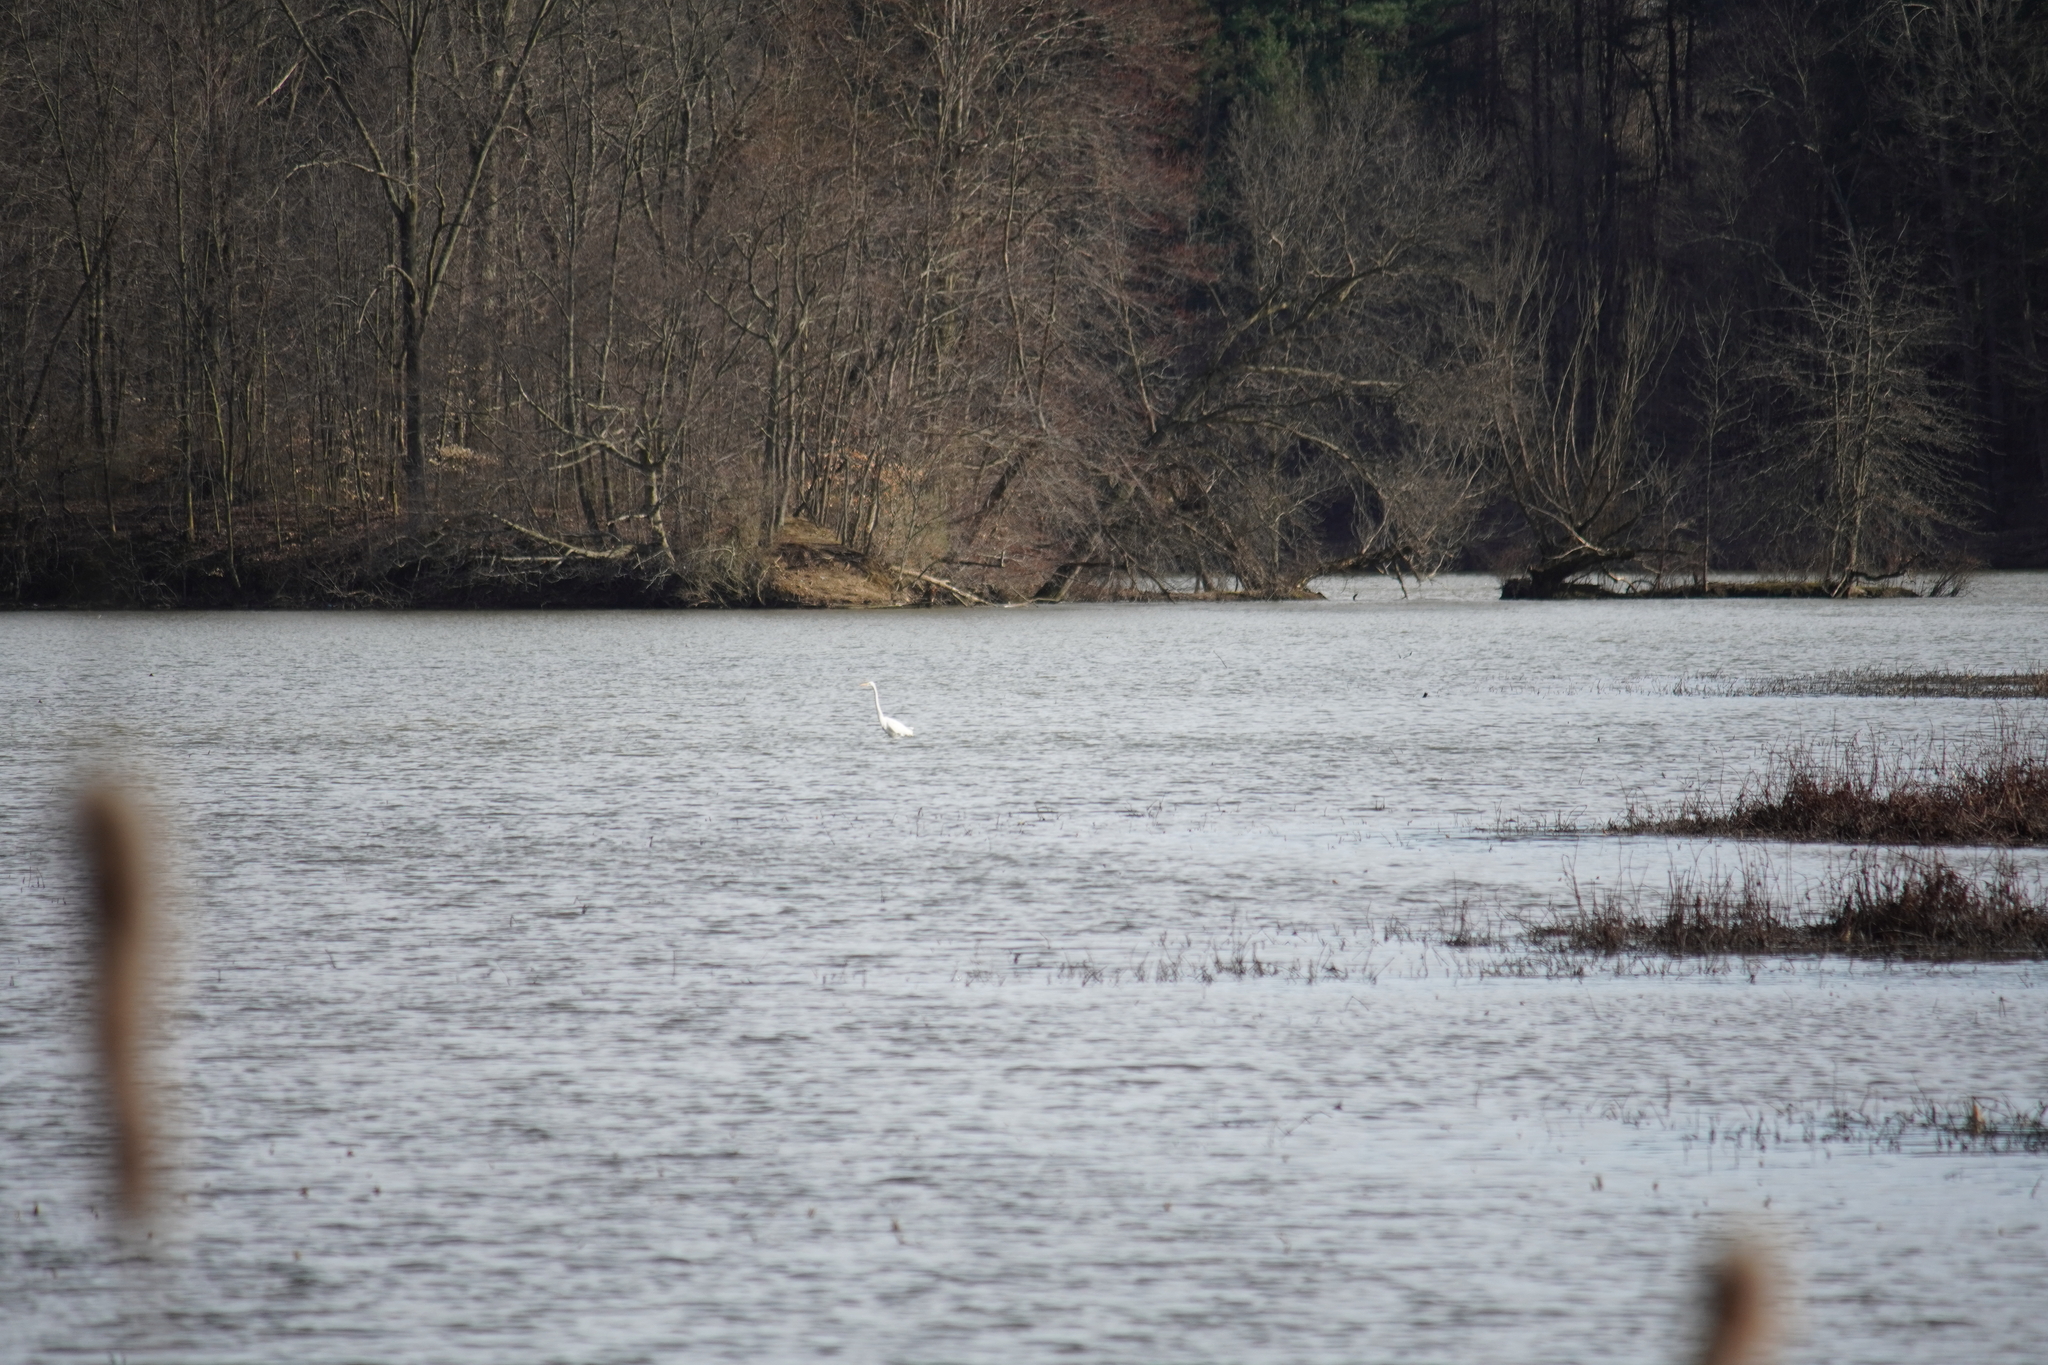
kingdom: Animalia
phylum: Chordata
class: Aves
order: Pelecaniformes
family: Ardeidae
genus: Ardea
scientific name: Ardea alba
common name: Great egret
